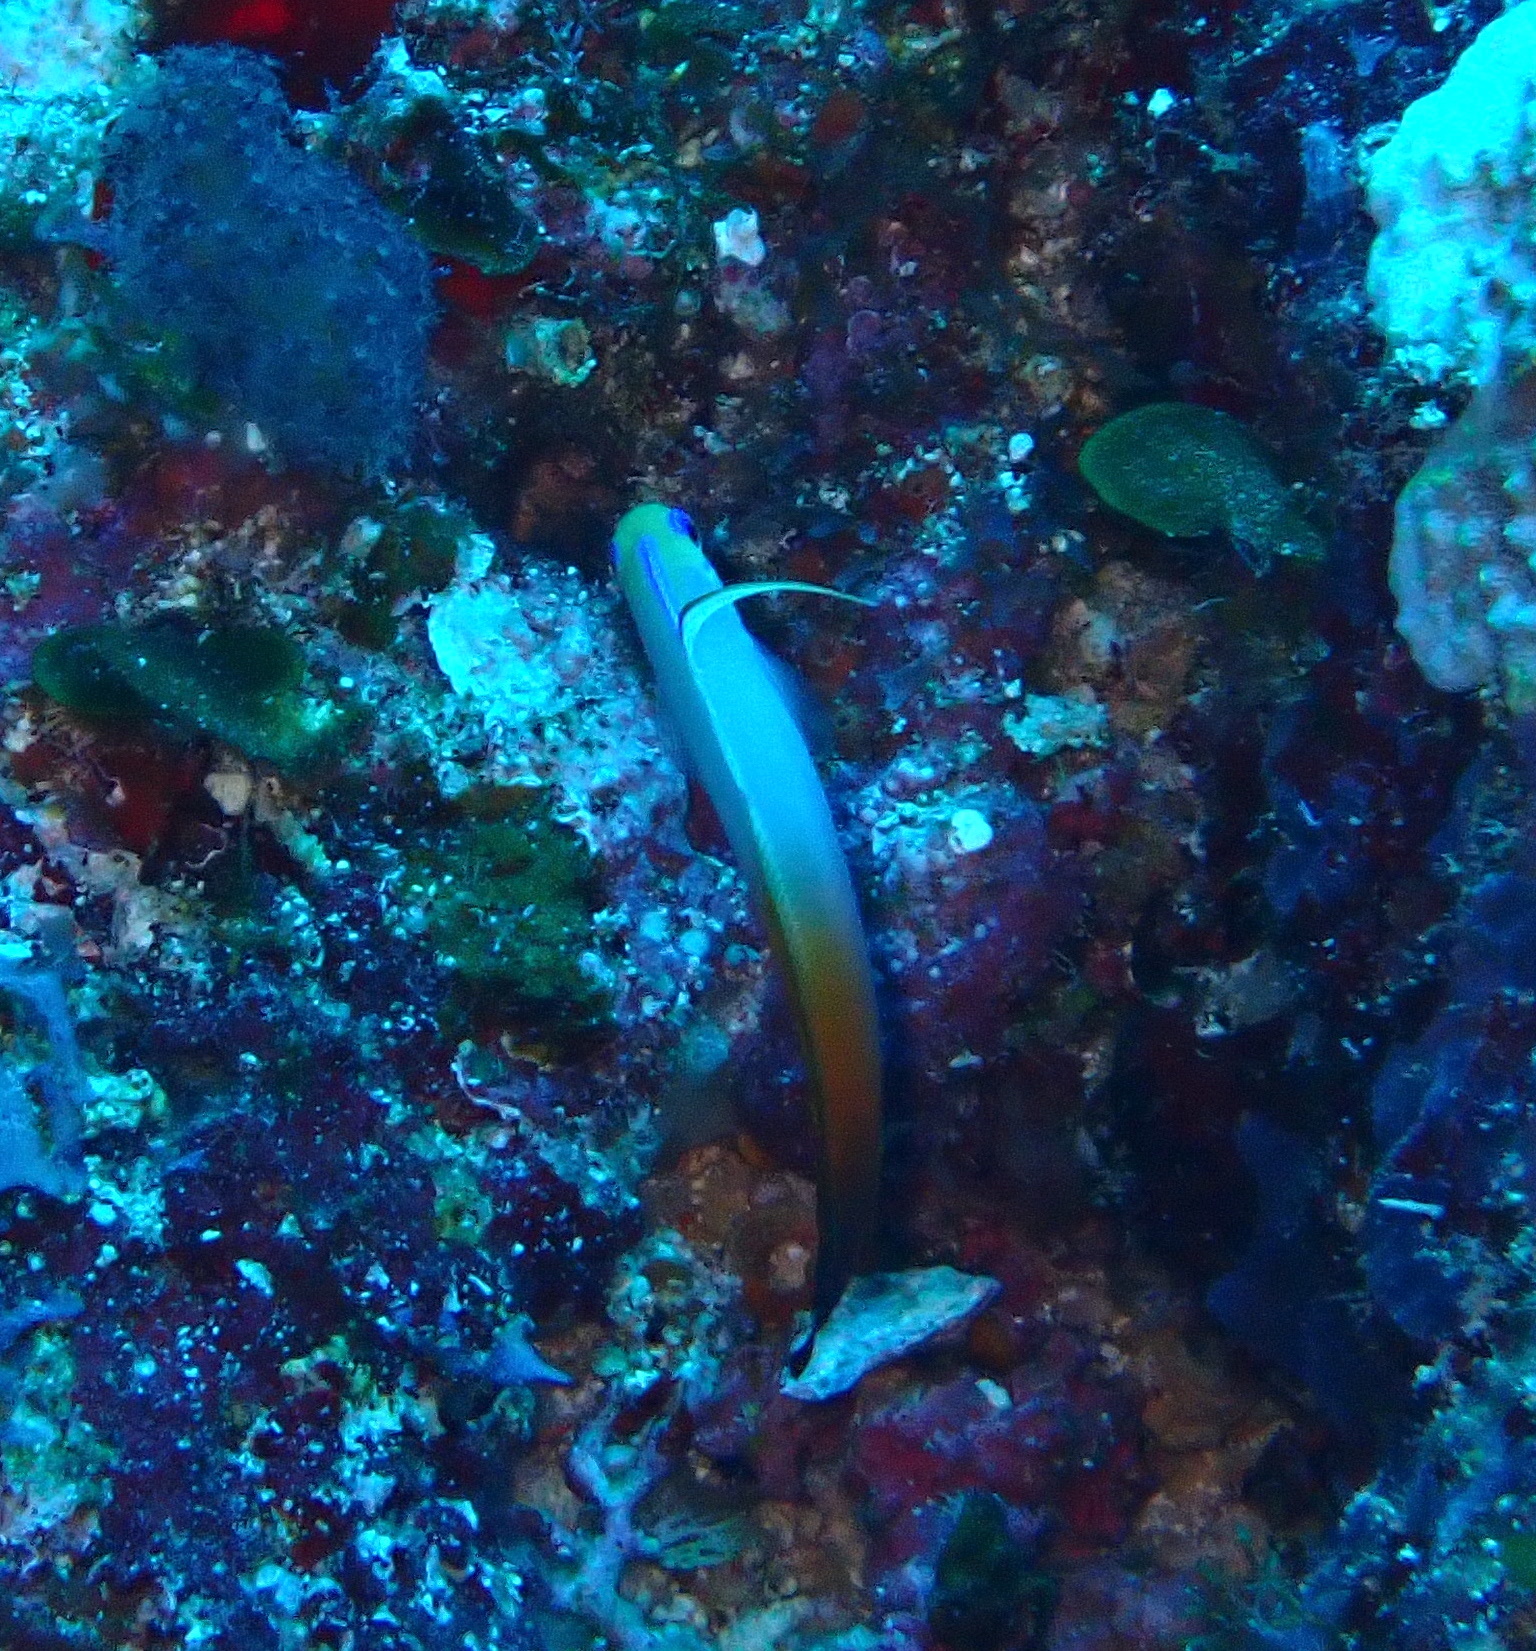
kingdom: Animalia
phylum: Chordata
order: Perciformes
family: Microdesmidae
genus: Nemateleotris
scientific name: Nemateleotris magnifica
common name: Fire goby
